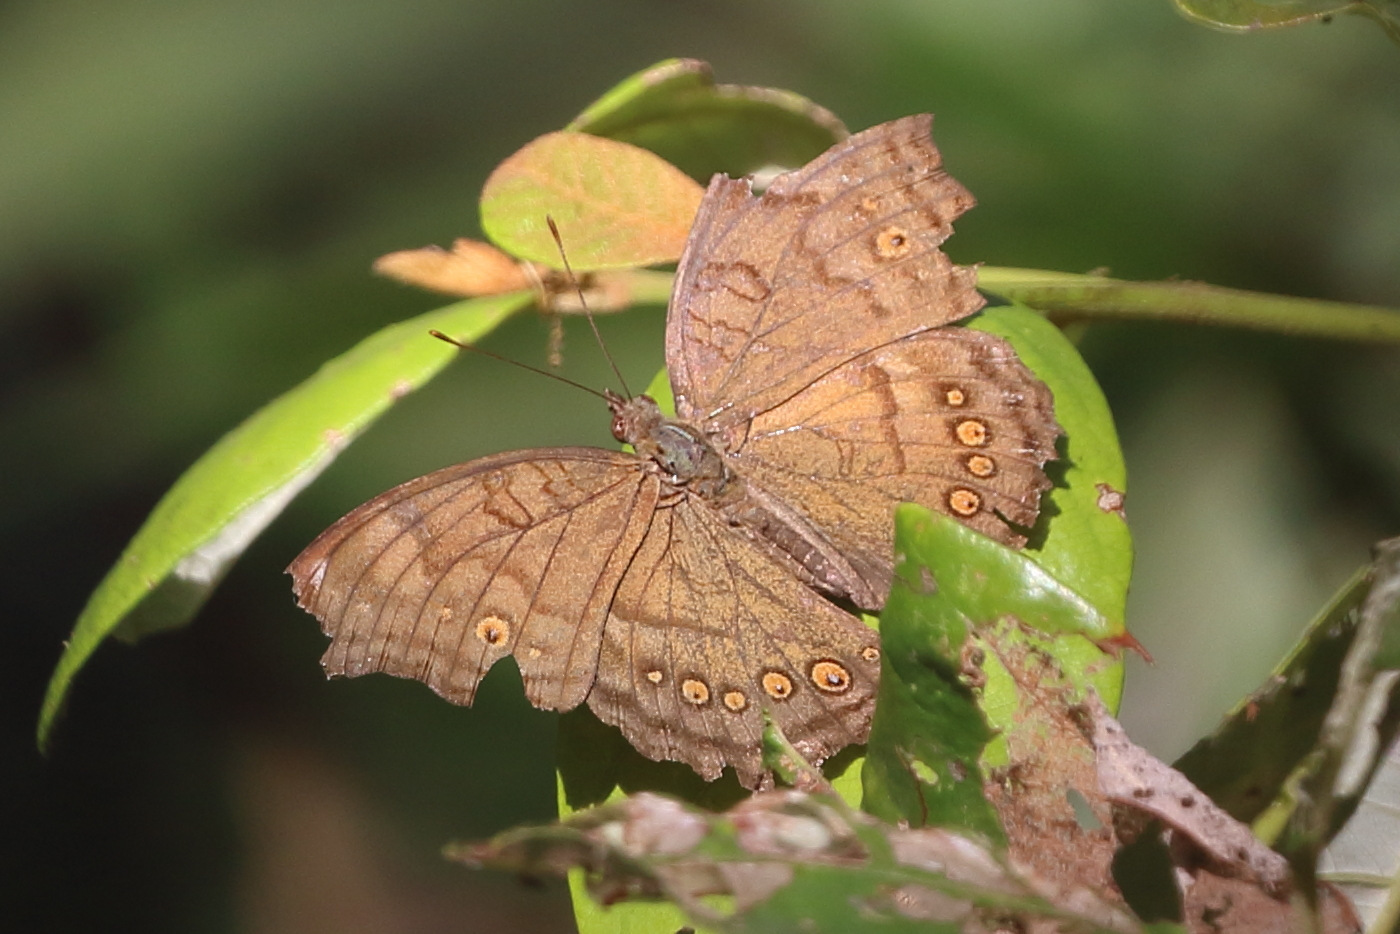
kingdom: Animalia
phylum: Arthropoda
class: Insecta
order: Lepidoptera
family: Nymphalidae
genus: Junonia
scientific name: Junonia hedonia
